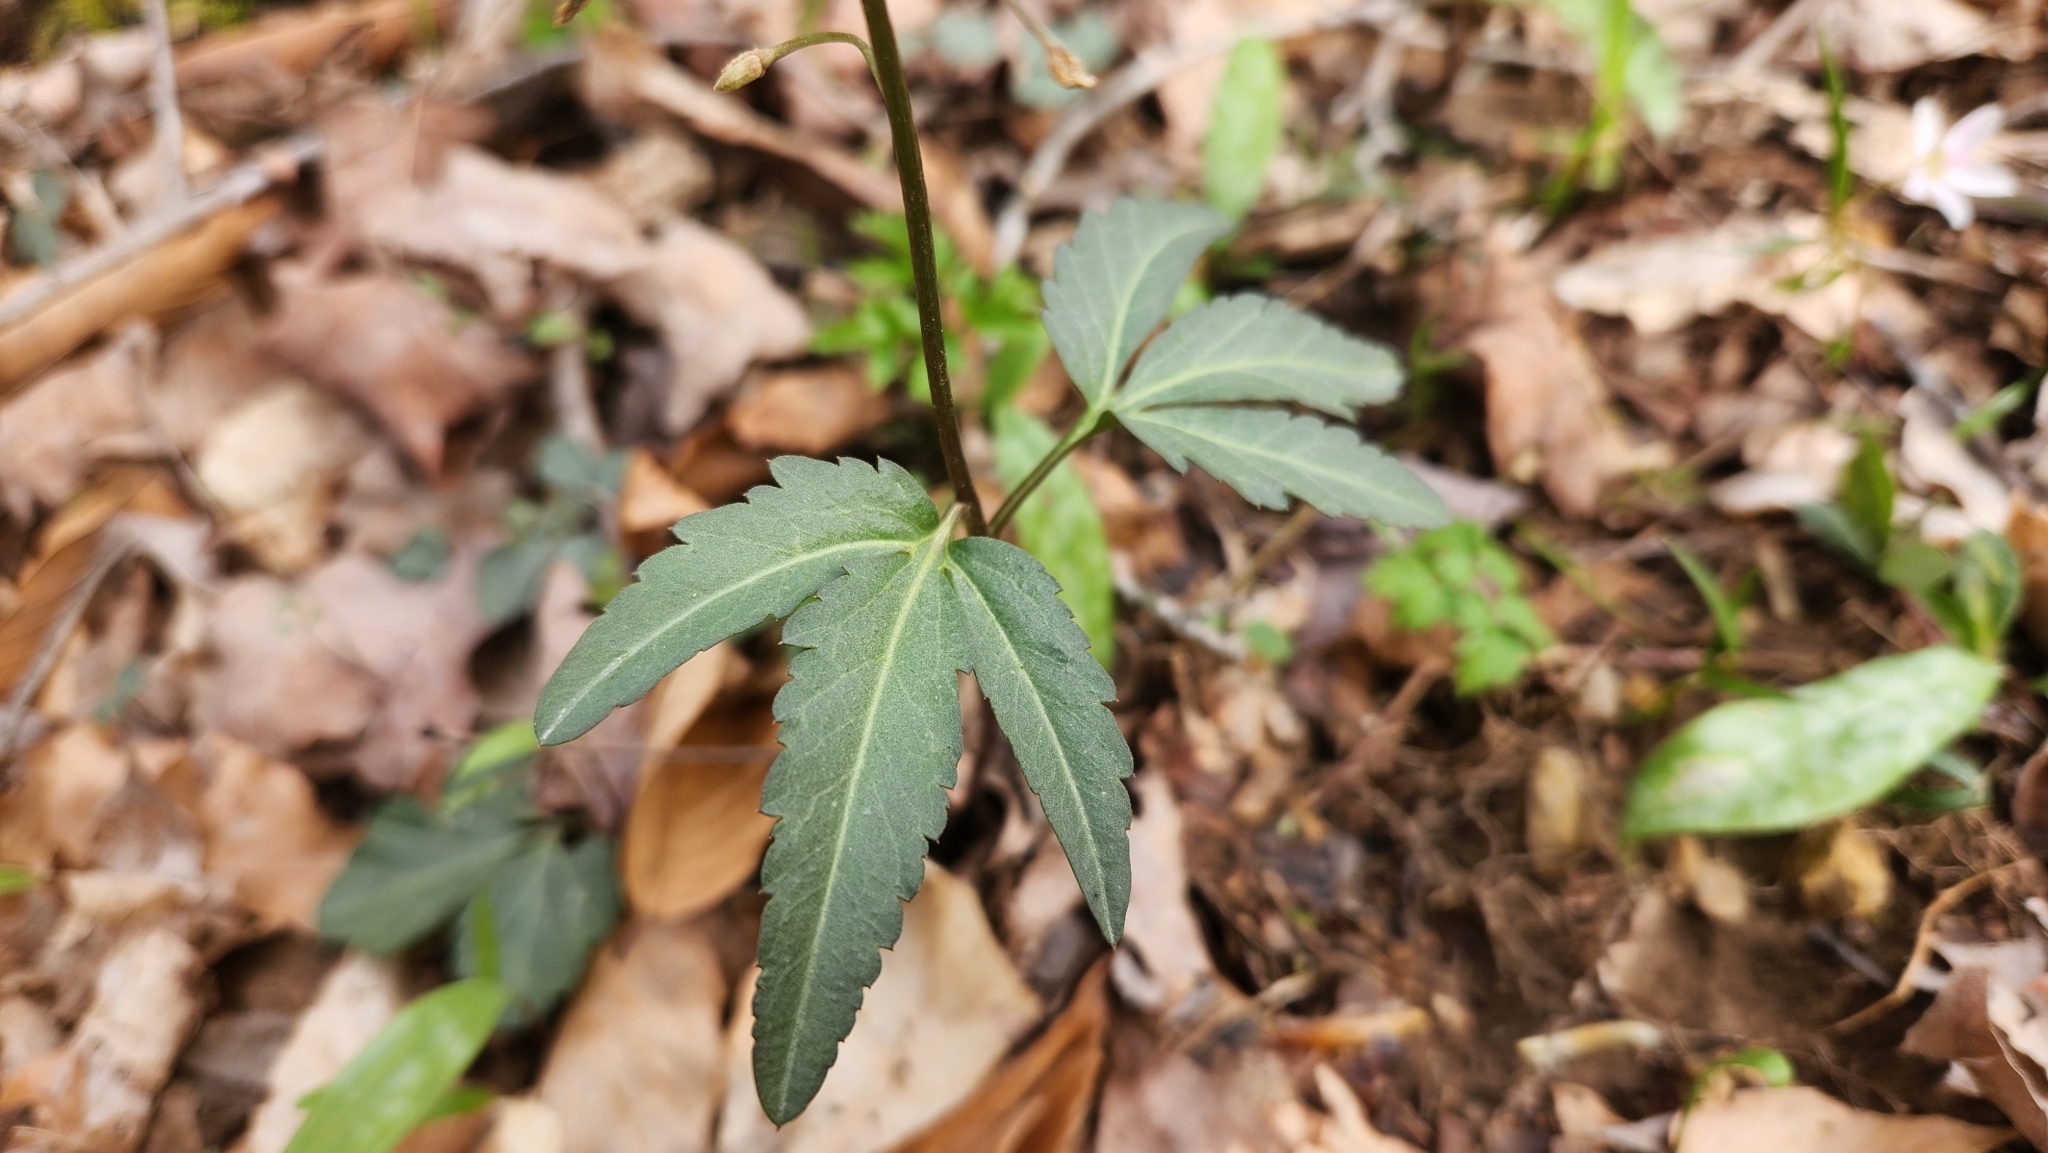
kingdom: Plantae
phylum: Tracheophyta
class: Magnoliopsida
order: Brassicales
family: Brassicaceae
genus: Cardamine
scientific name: Cardamine angustata
